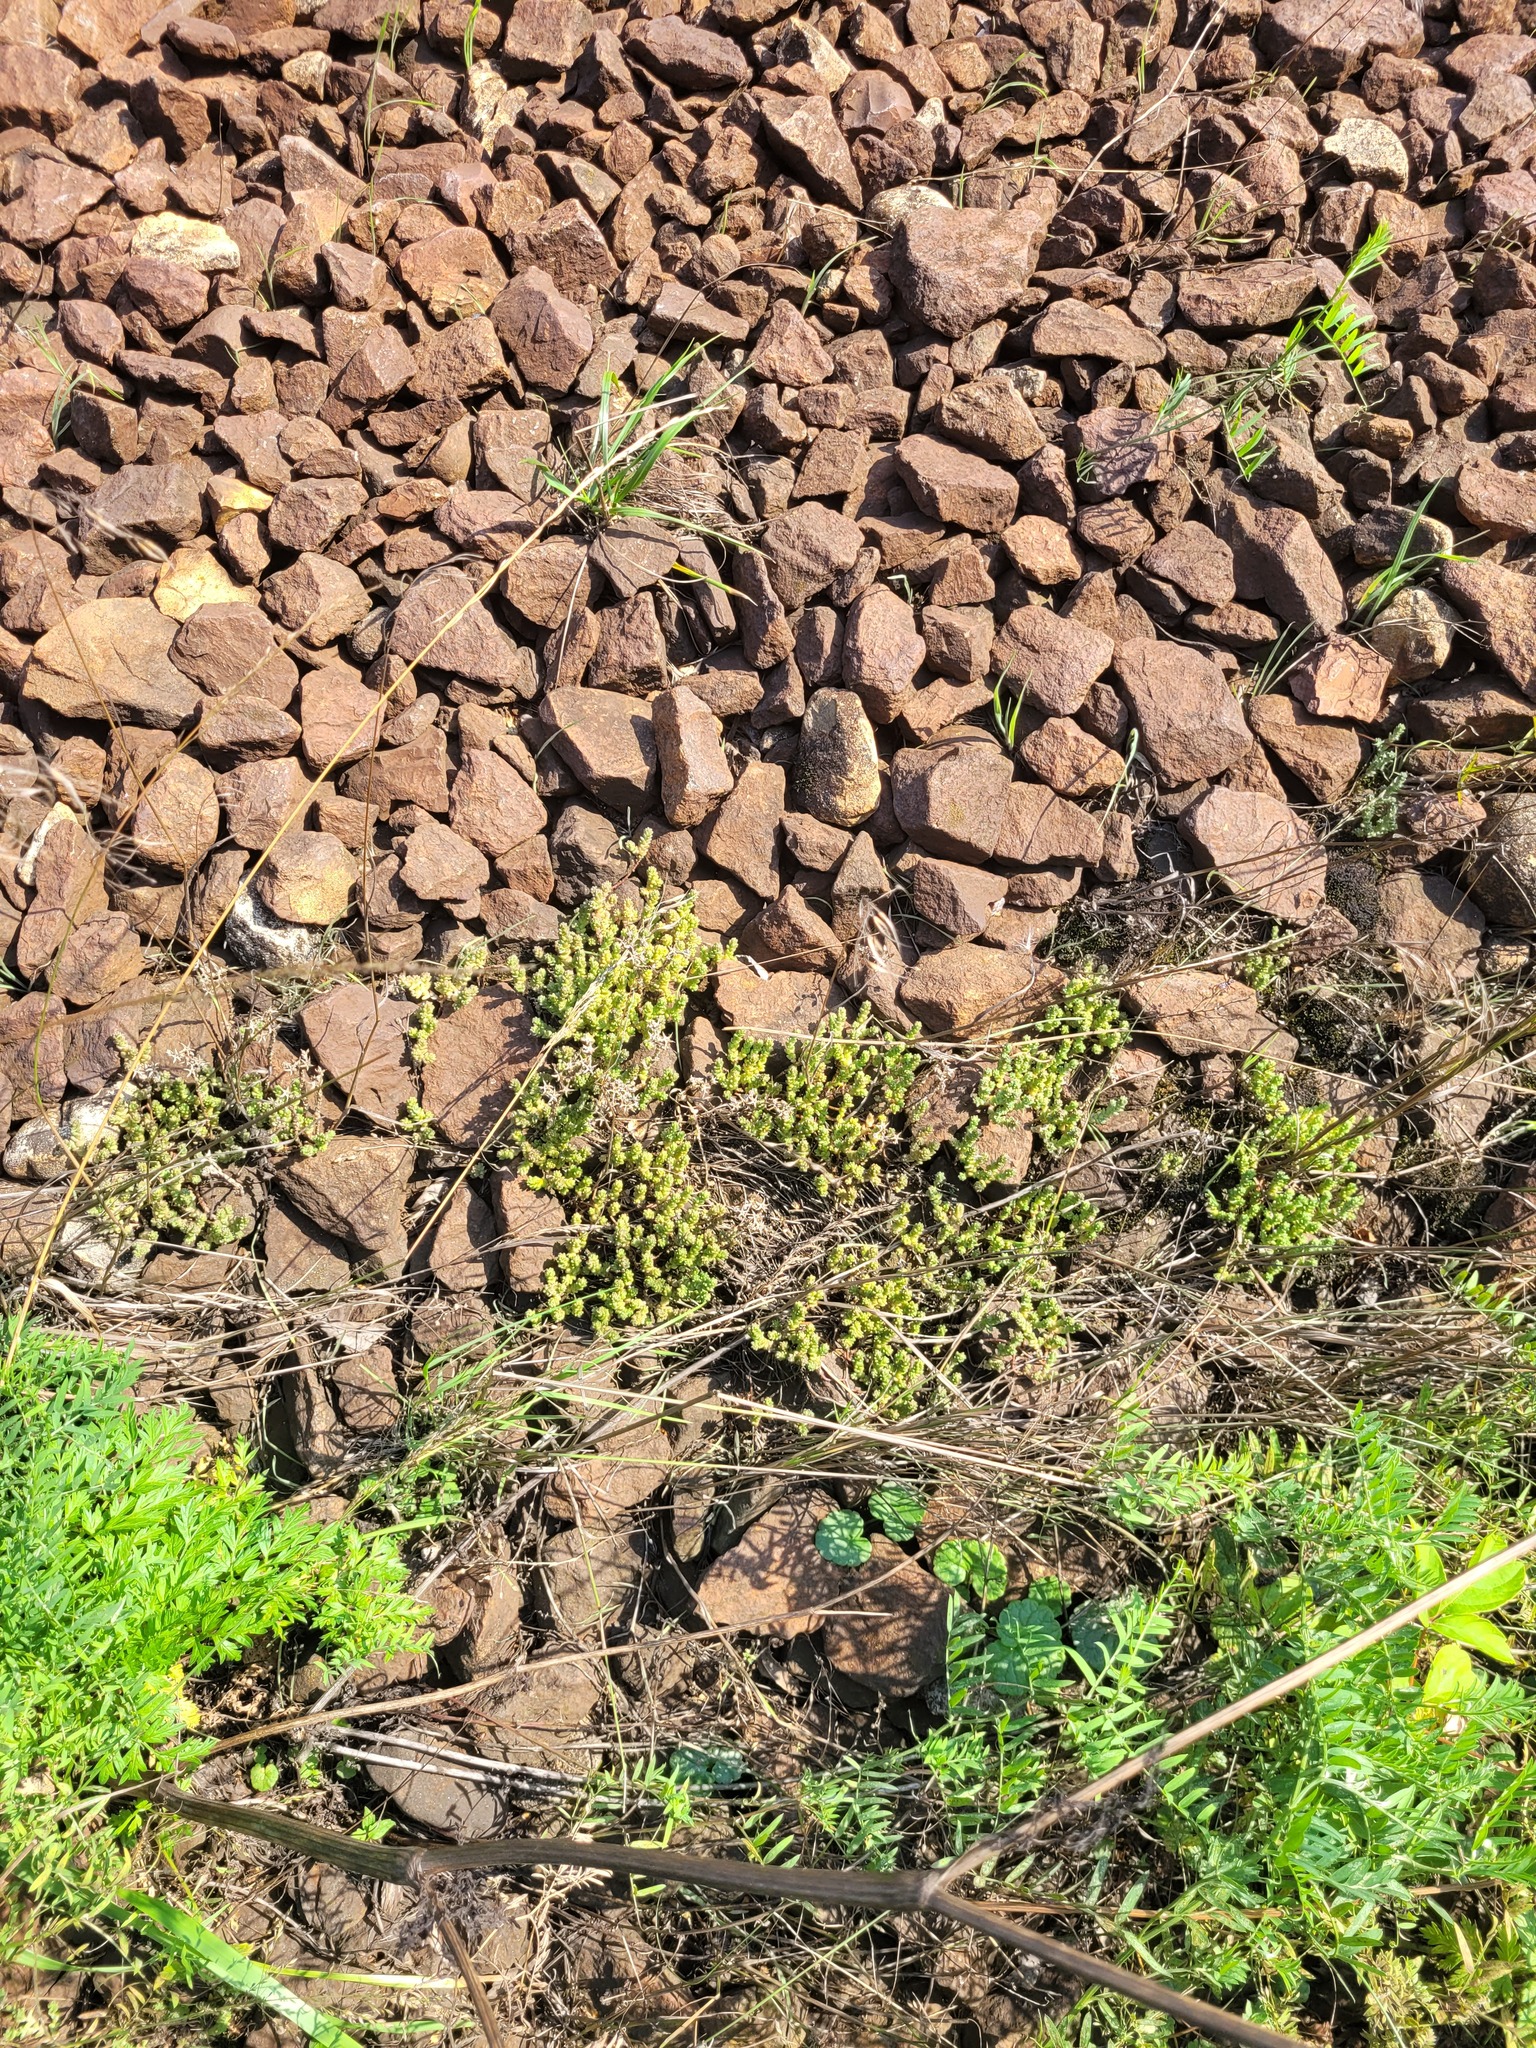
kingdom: Plantae
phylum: Tracheophyta
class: Magnoliopsida
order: Saxifragales
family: Crassulaceae
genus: Sedum
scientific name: Sedum acre
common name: Biting stonecrop
